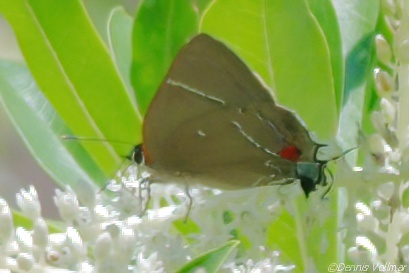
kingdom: Animalia
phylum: Arthropoda
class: Insecta
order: Lepidoptera
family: Lycaenidae
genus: Parrhasius
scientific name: Parrhasius m-album
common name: White m hairstreak
